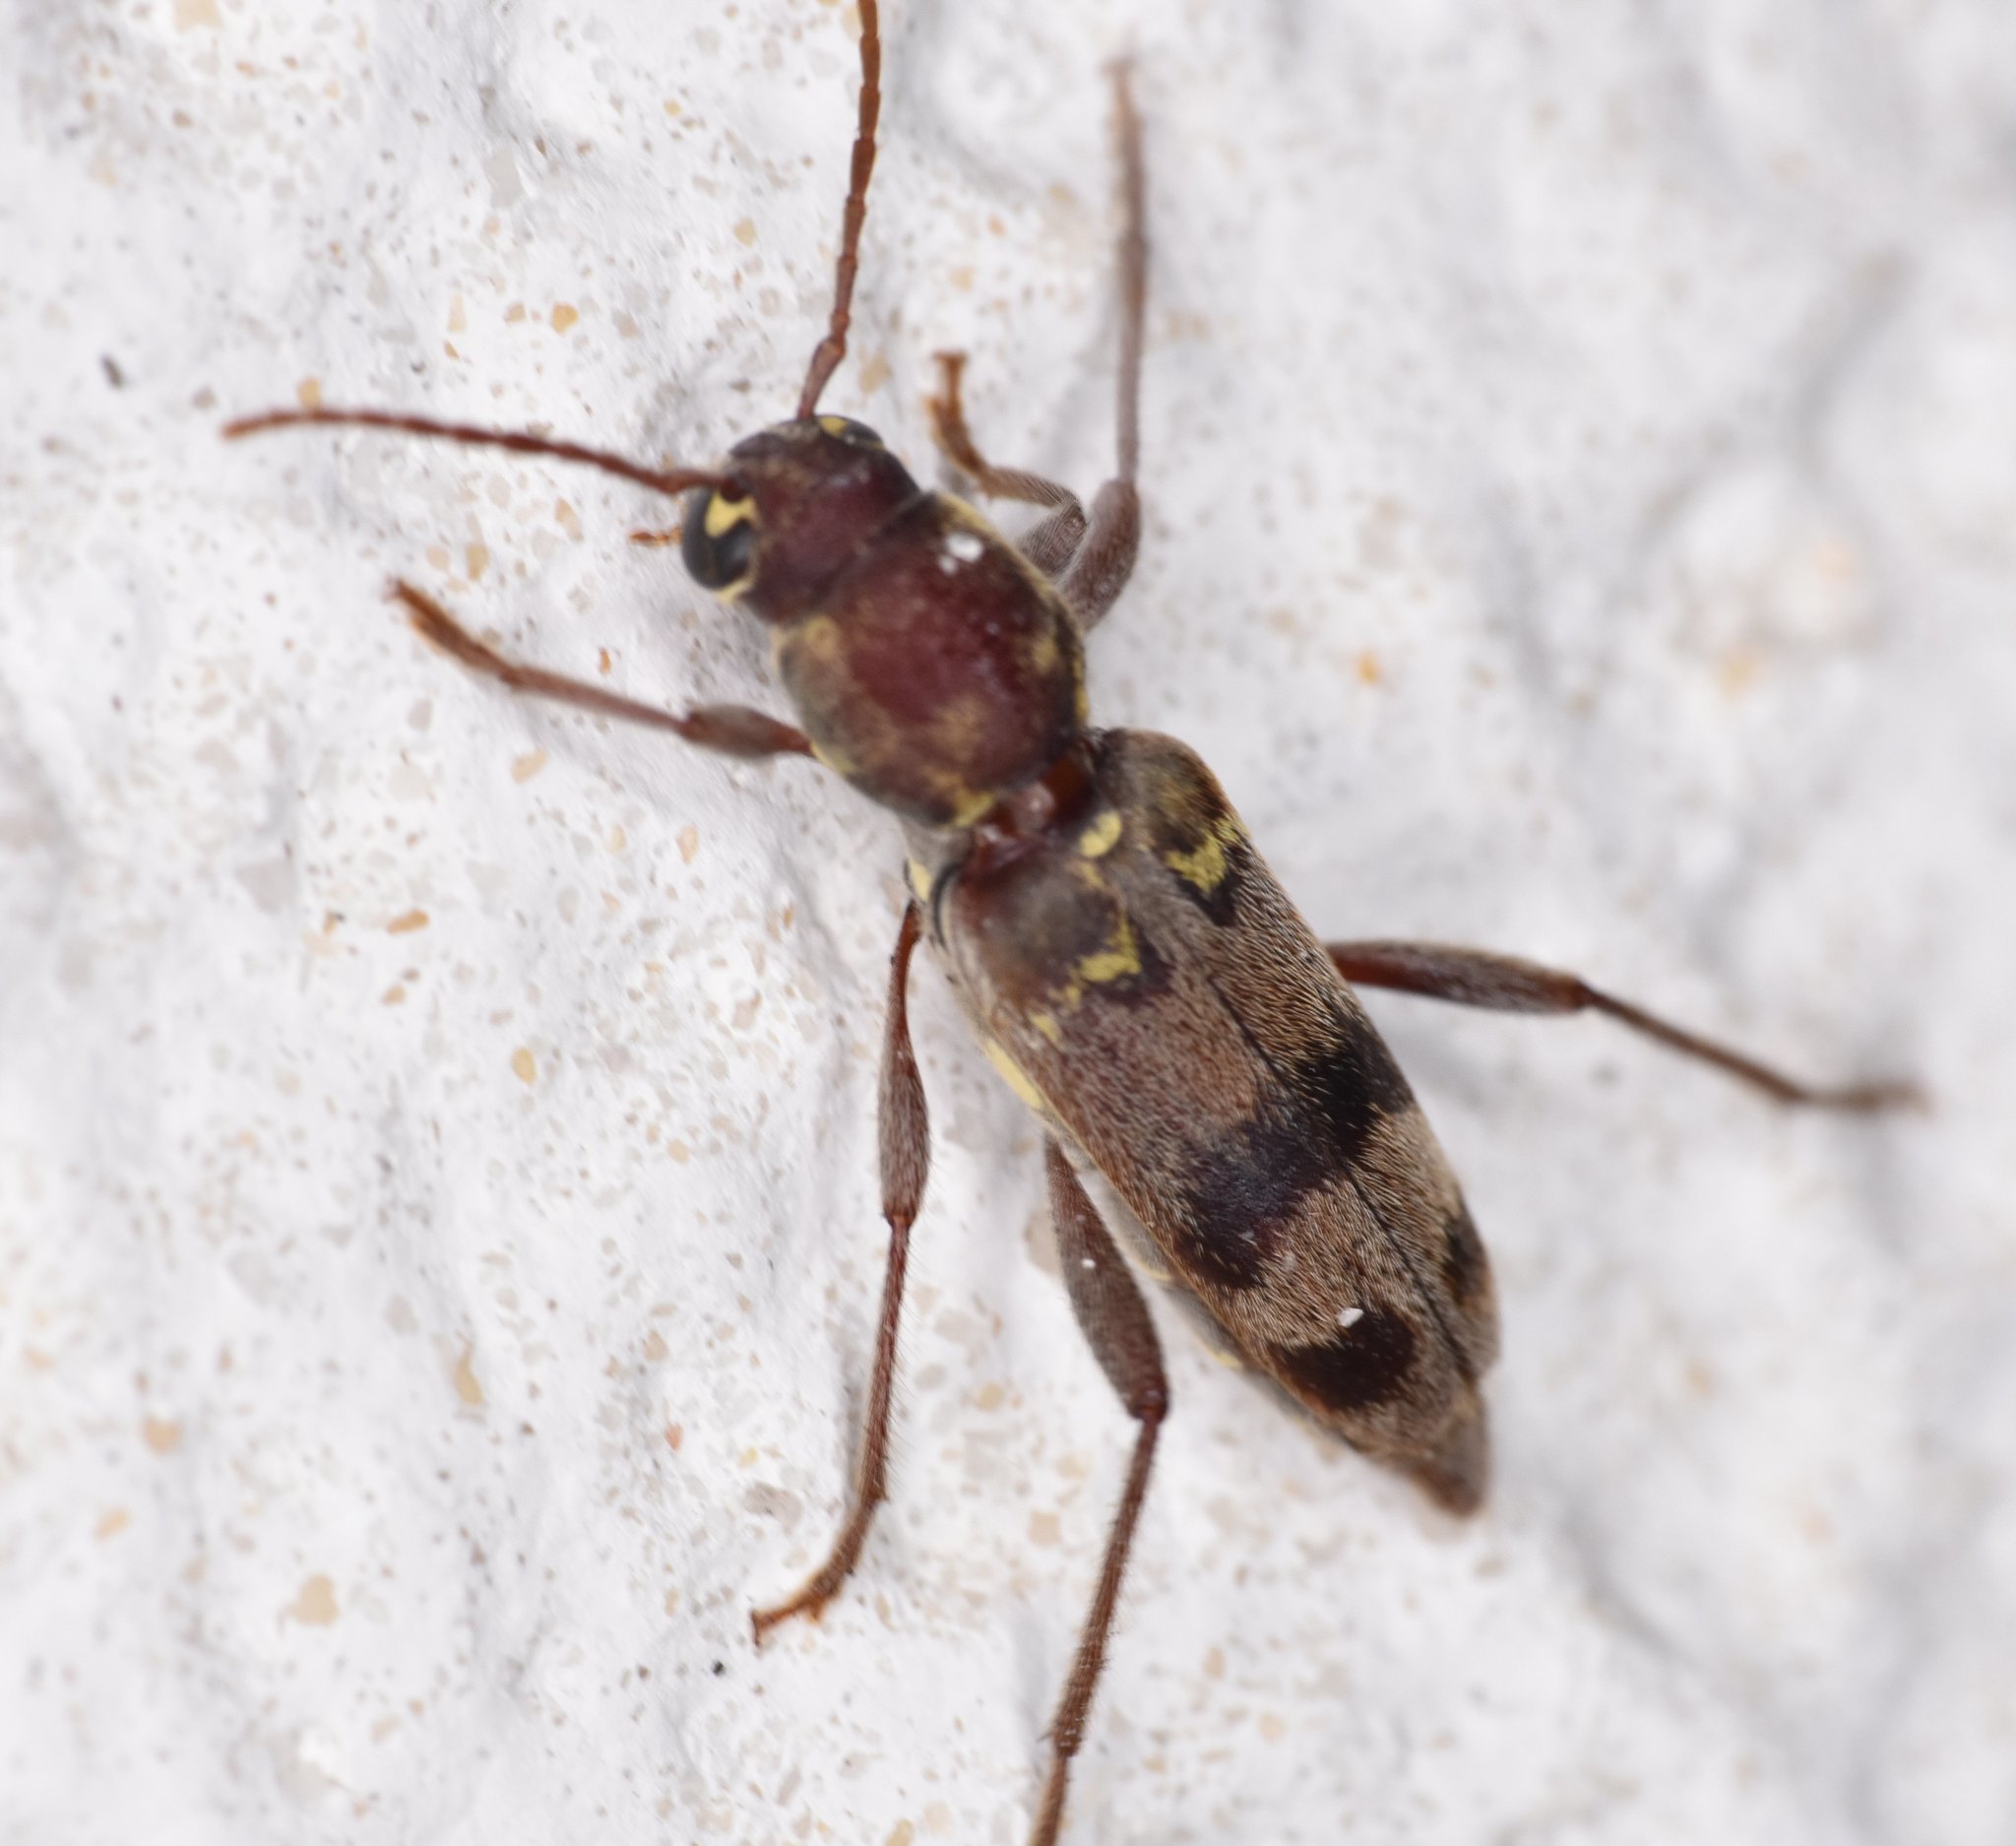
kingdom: Animalia
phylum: Arthropoda
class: Insecta
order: Coleoptera
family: Cerambycidae
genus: Xylotrechus
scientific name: Xylotrechus colonus
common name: Long-horned beetle
